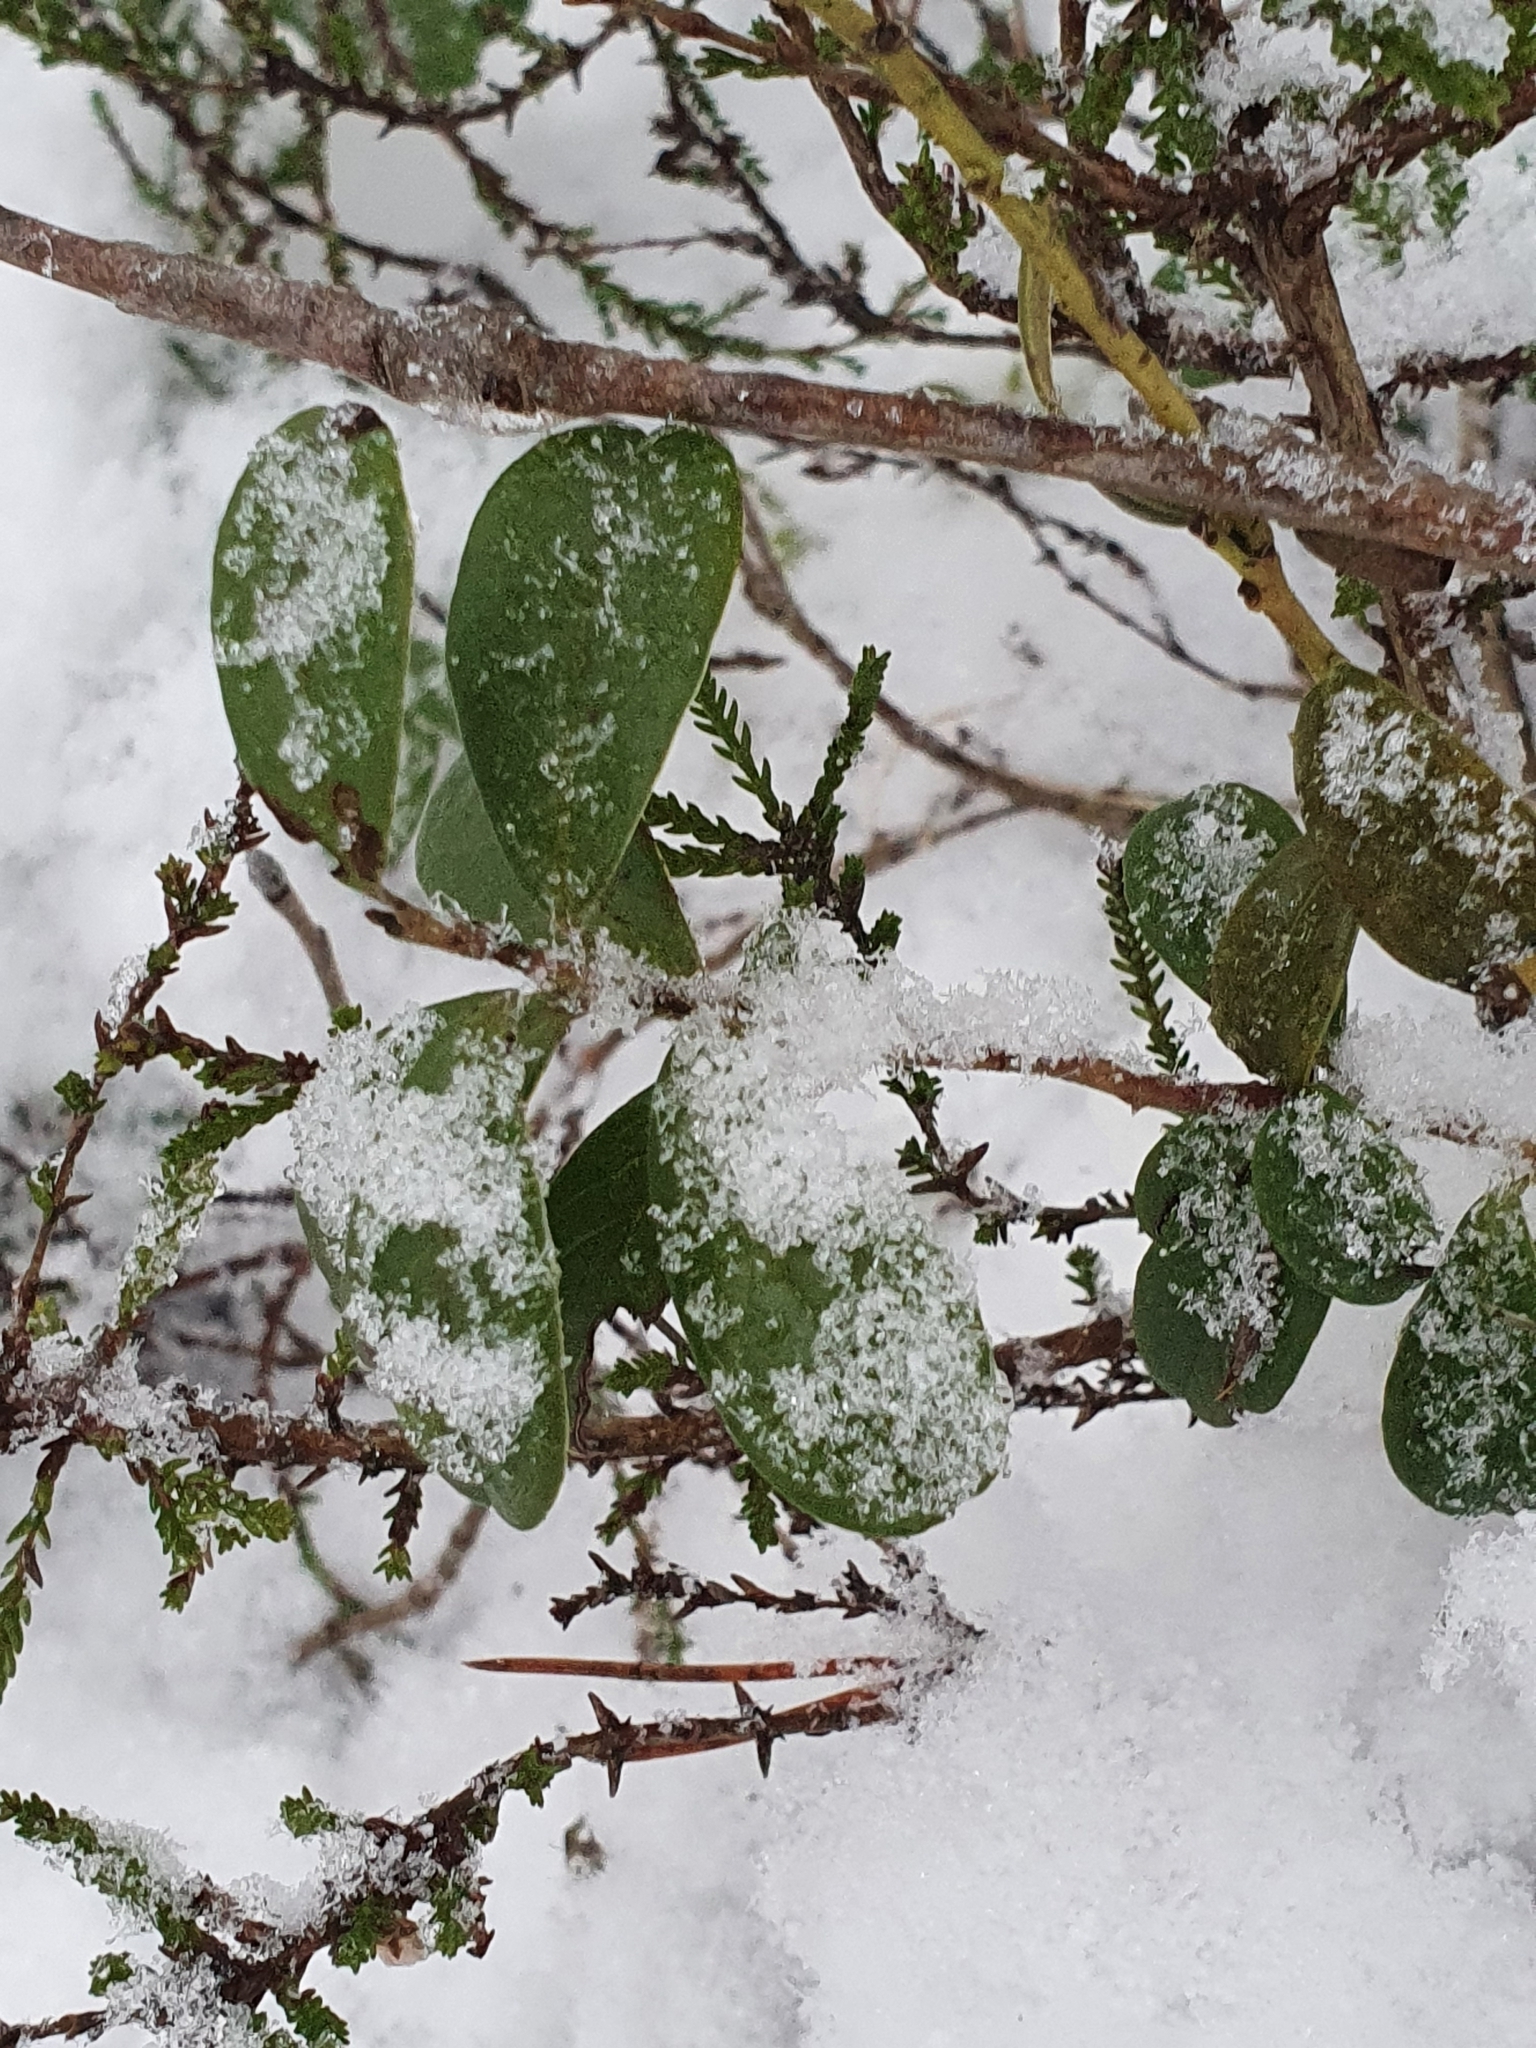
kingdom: Plantae
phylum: Tracheophyta
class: Magnoliopsida
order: Ericales
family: Ericaceae
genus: Vaccinium
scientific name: Vaccinium vitis-idaea
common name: Cowberry
